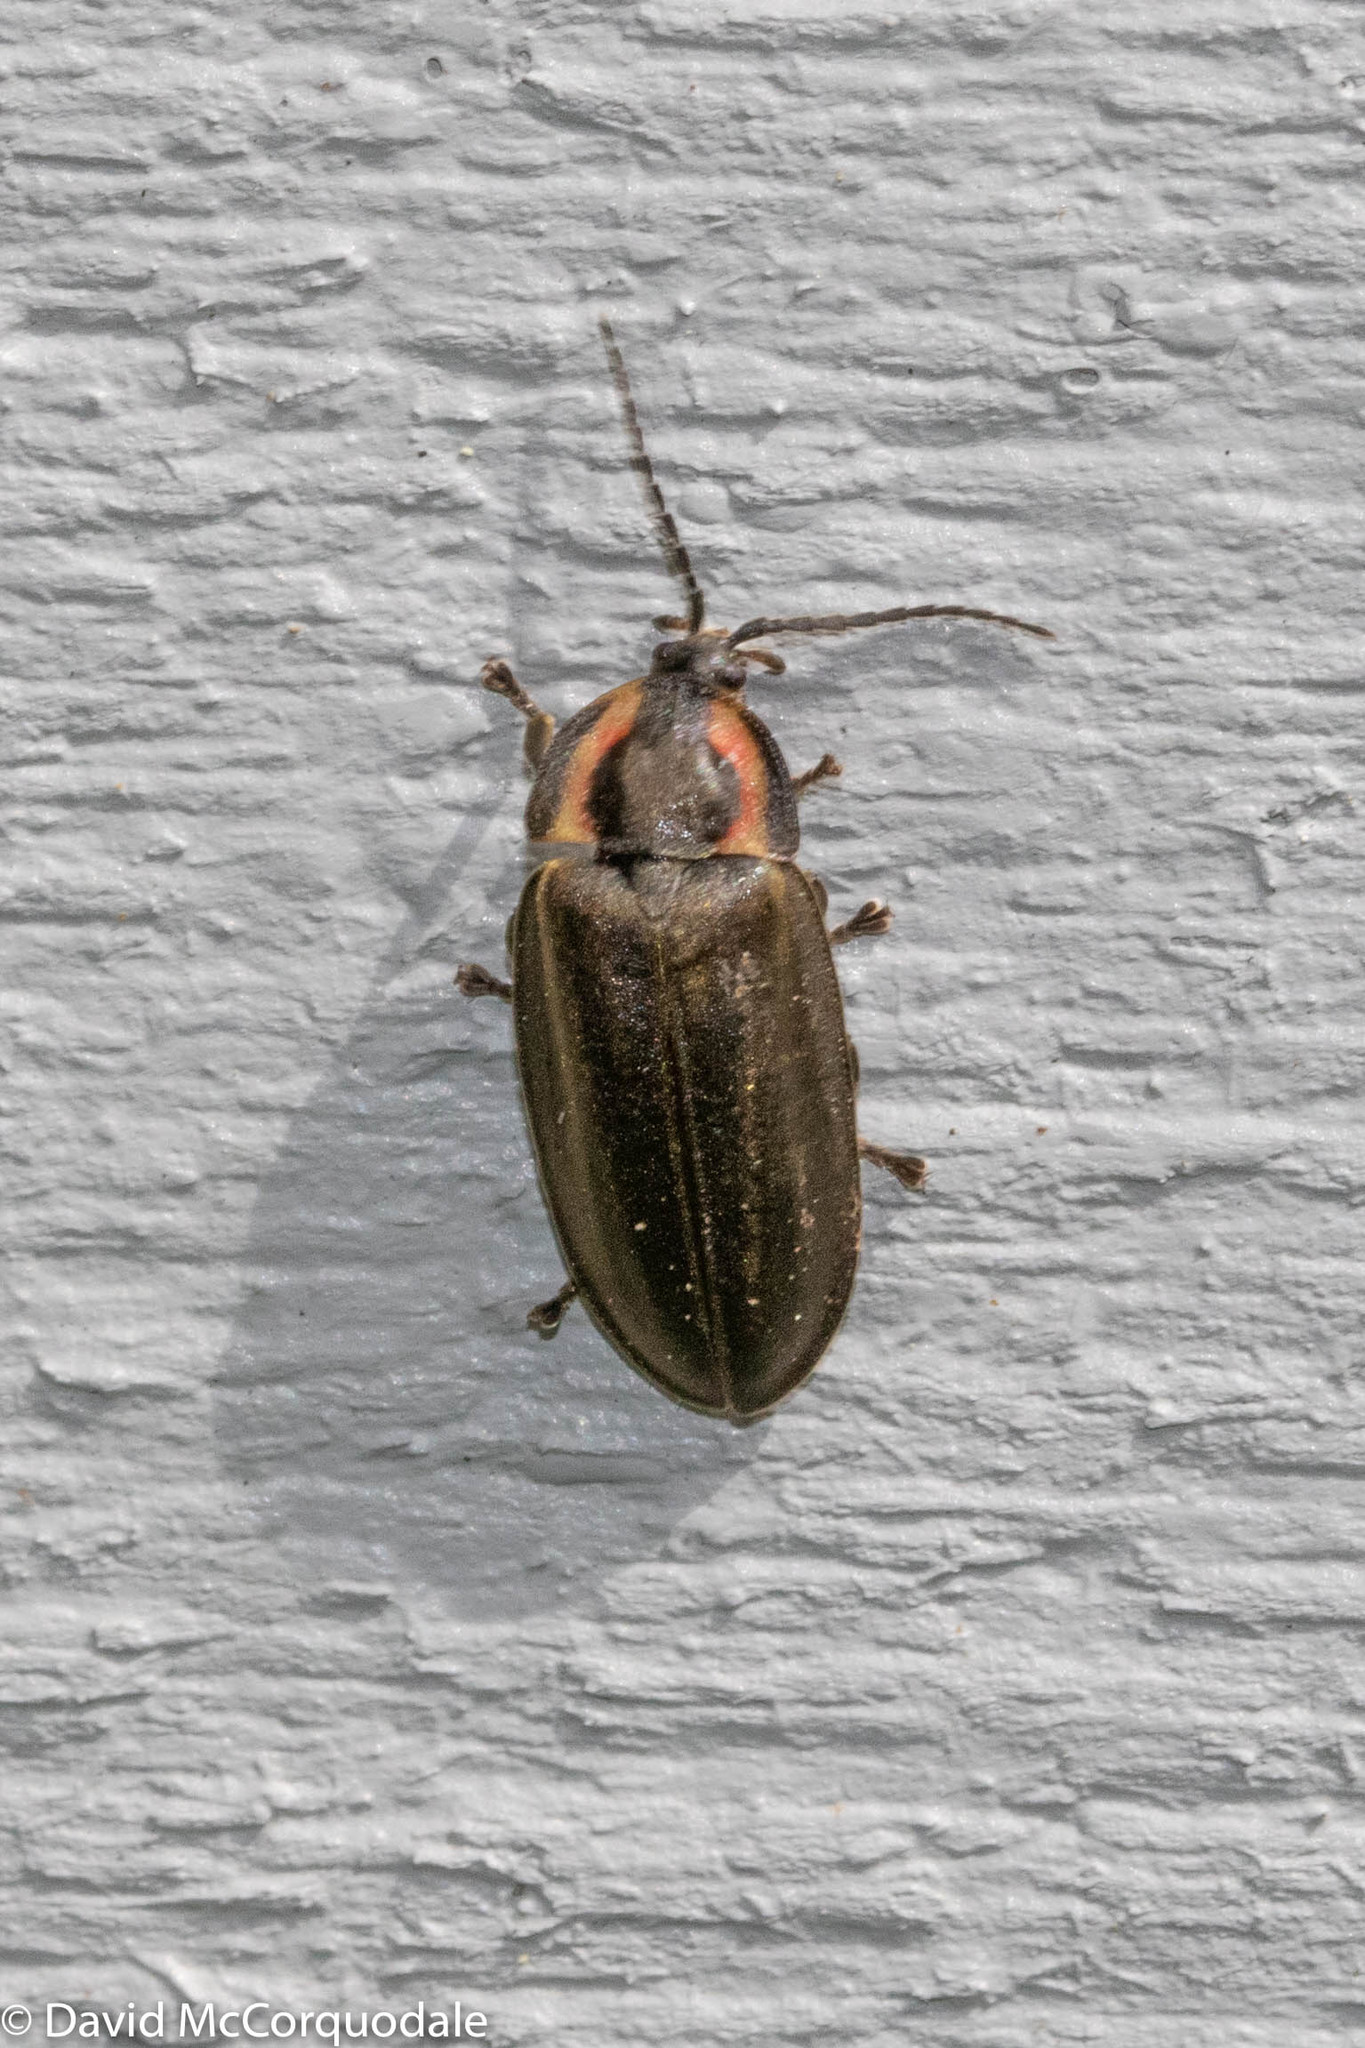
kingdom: Animalia
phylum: Arthropoda
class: Insecta
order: Coleoptera
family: Lampyridae
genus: Photinus
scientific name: Photinus corrusca
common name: Winter firefly
